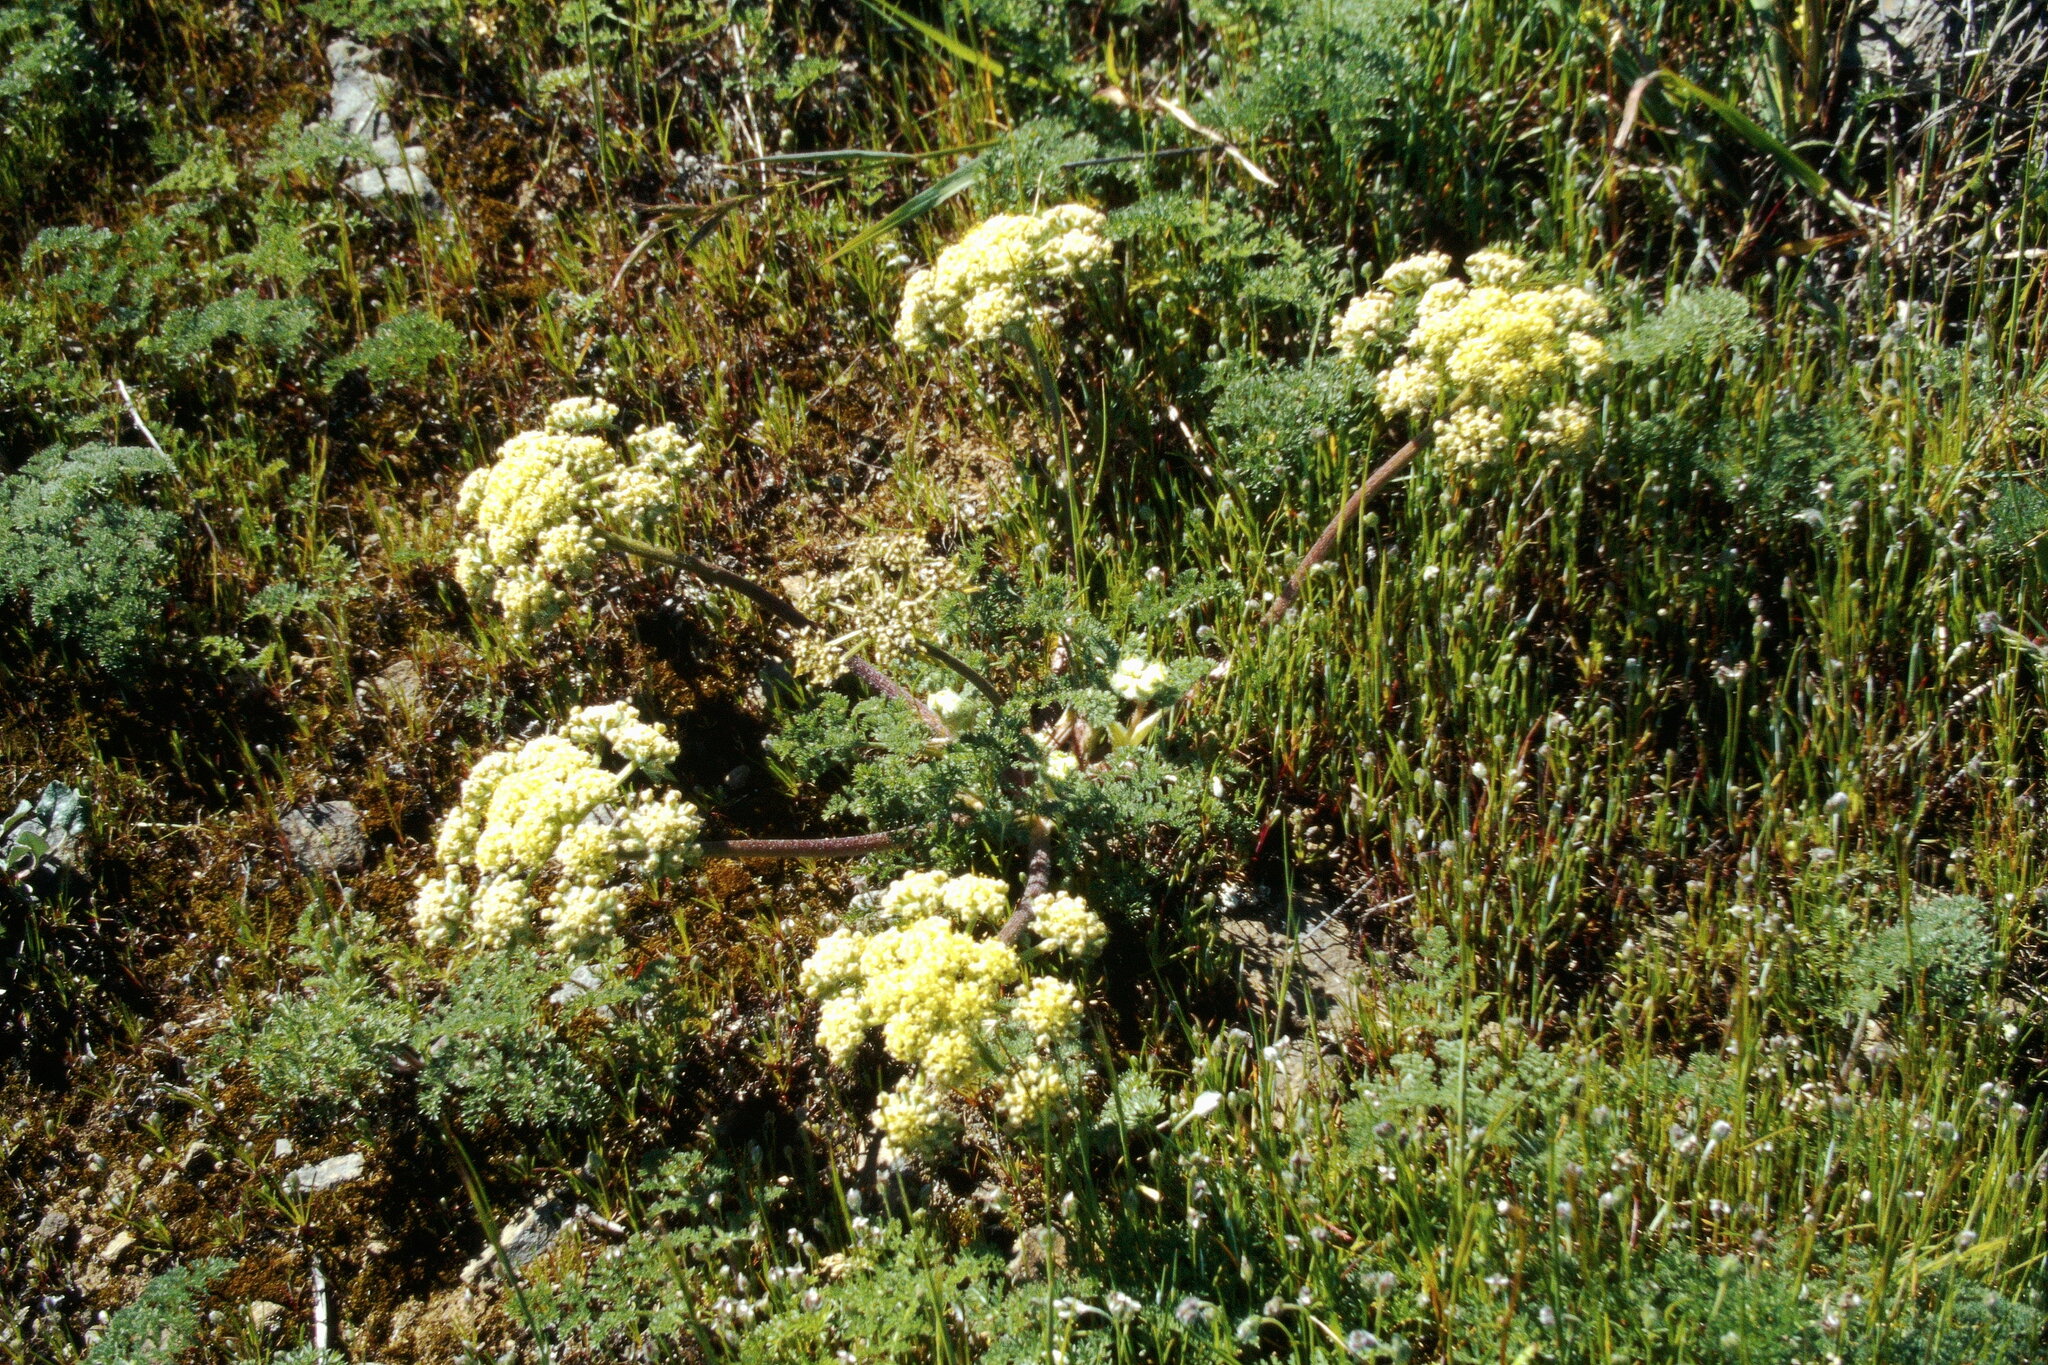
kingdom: Plantae
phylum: Tracheophyta
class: Magnoliopsida
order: Apiales
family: Apiaceae
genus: Lomatium
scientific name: Lomatium dasycarpum
